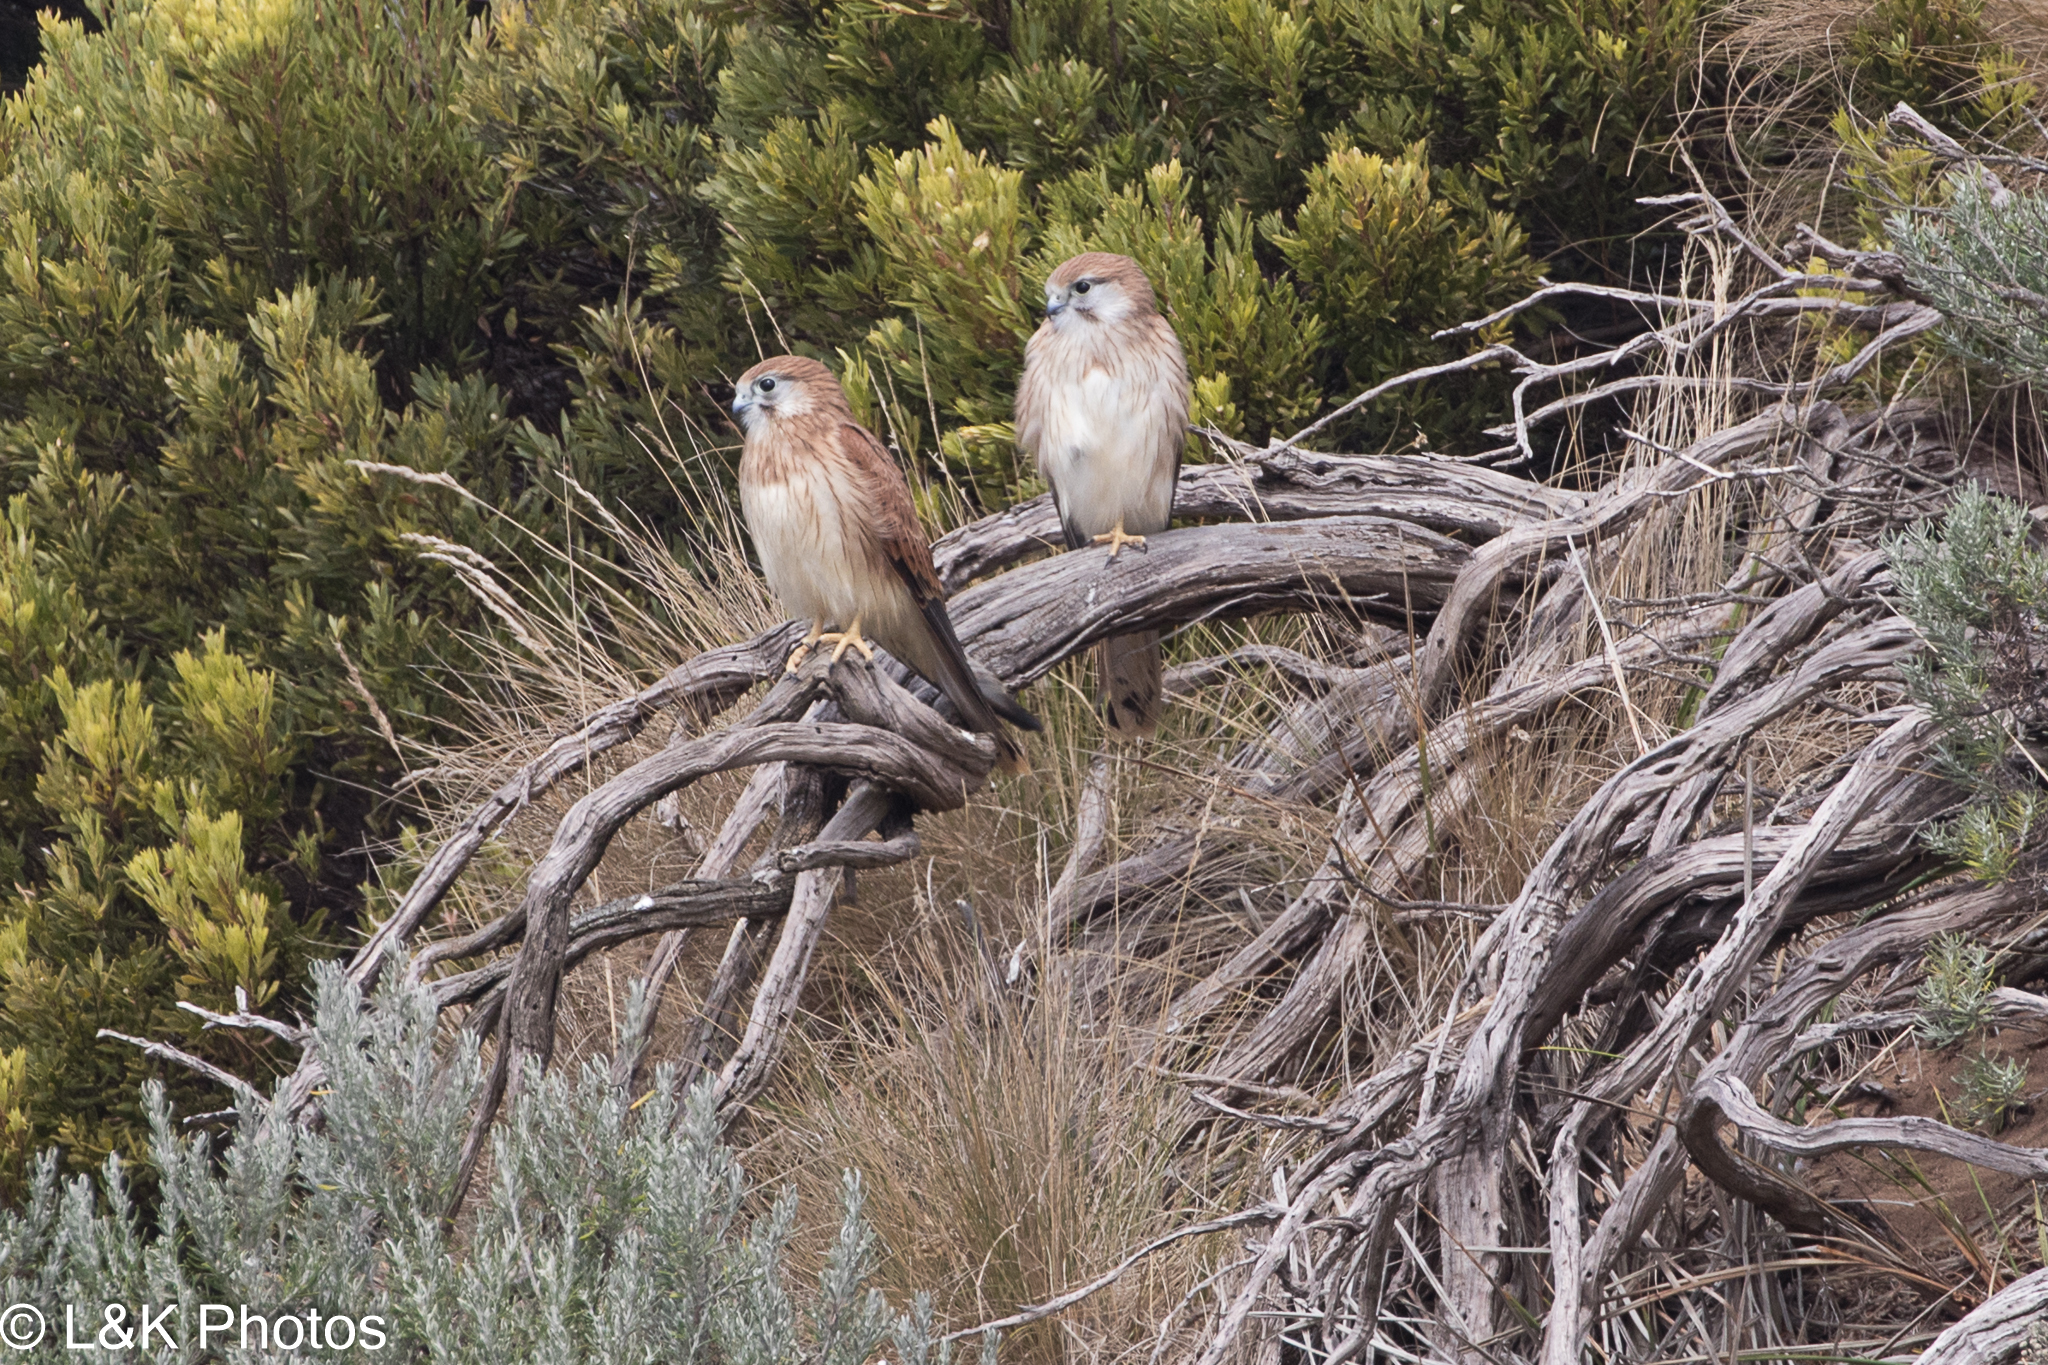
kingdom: Animalia
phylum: Chordata
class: Aves
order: Falconiformes
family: Falconidae
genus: Falco
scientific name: Falco cenchroides
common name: Nankeen kestrel
